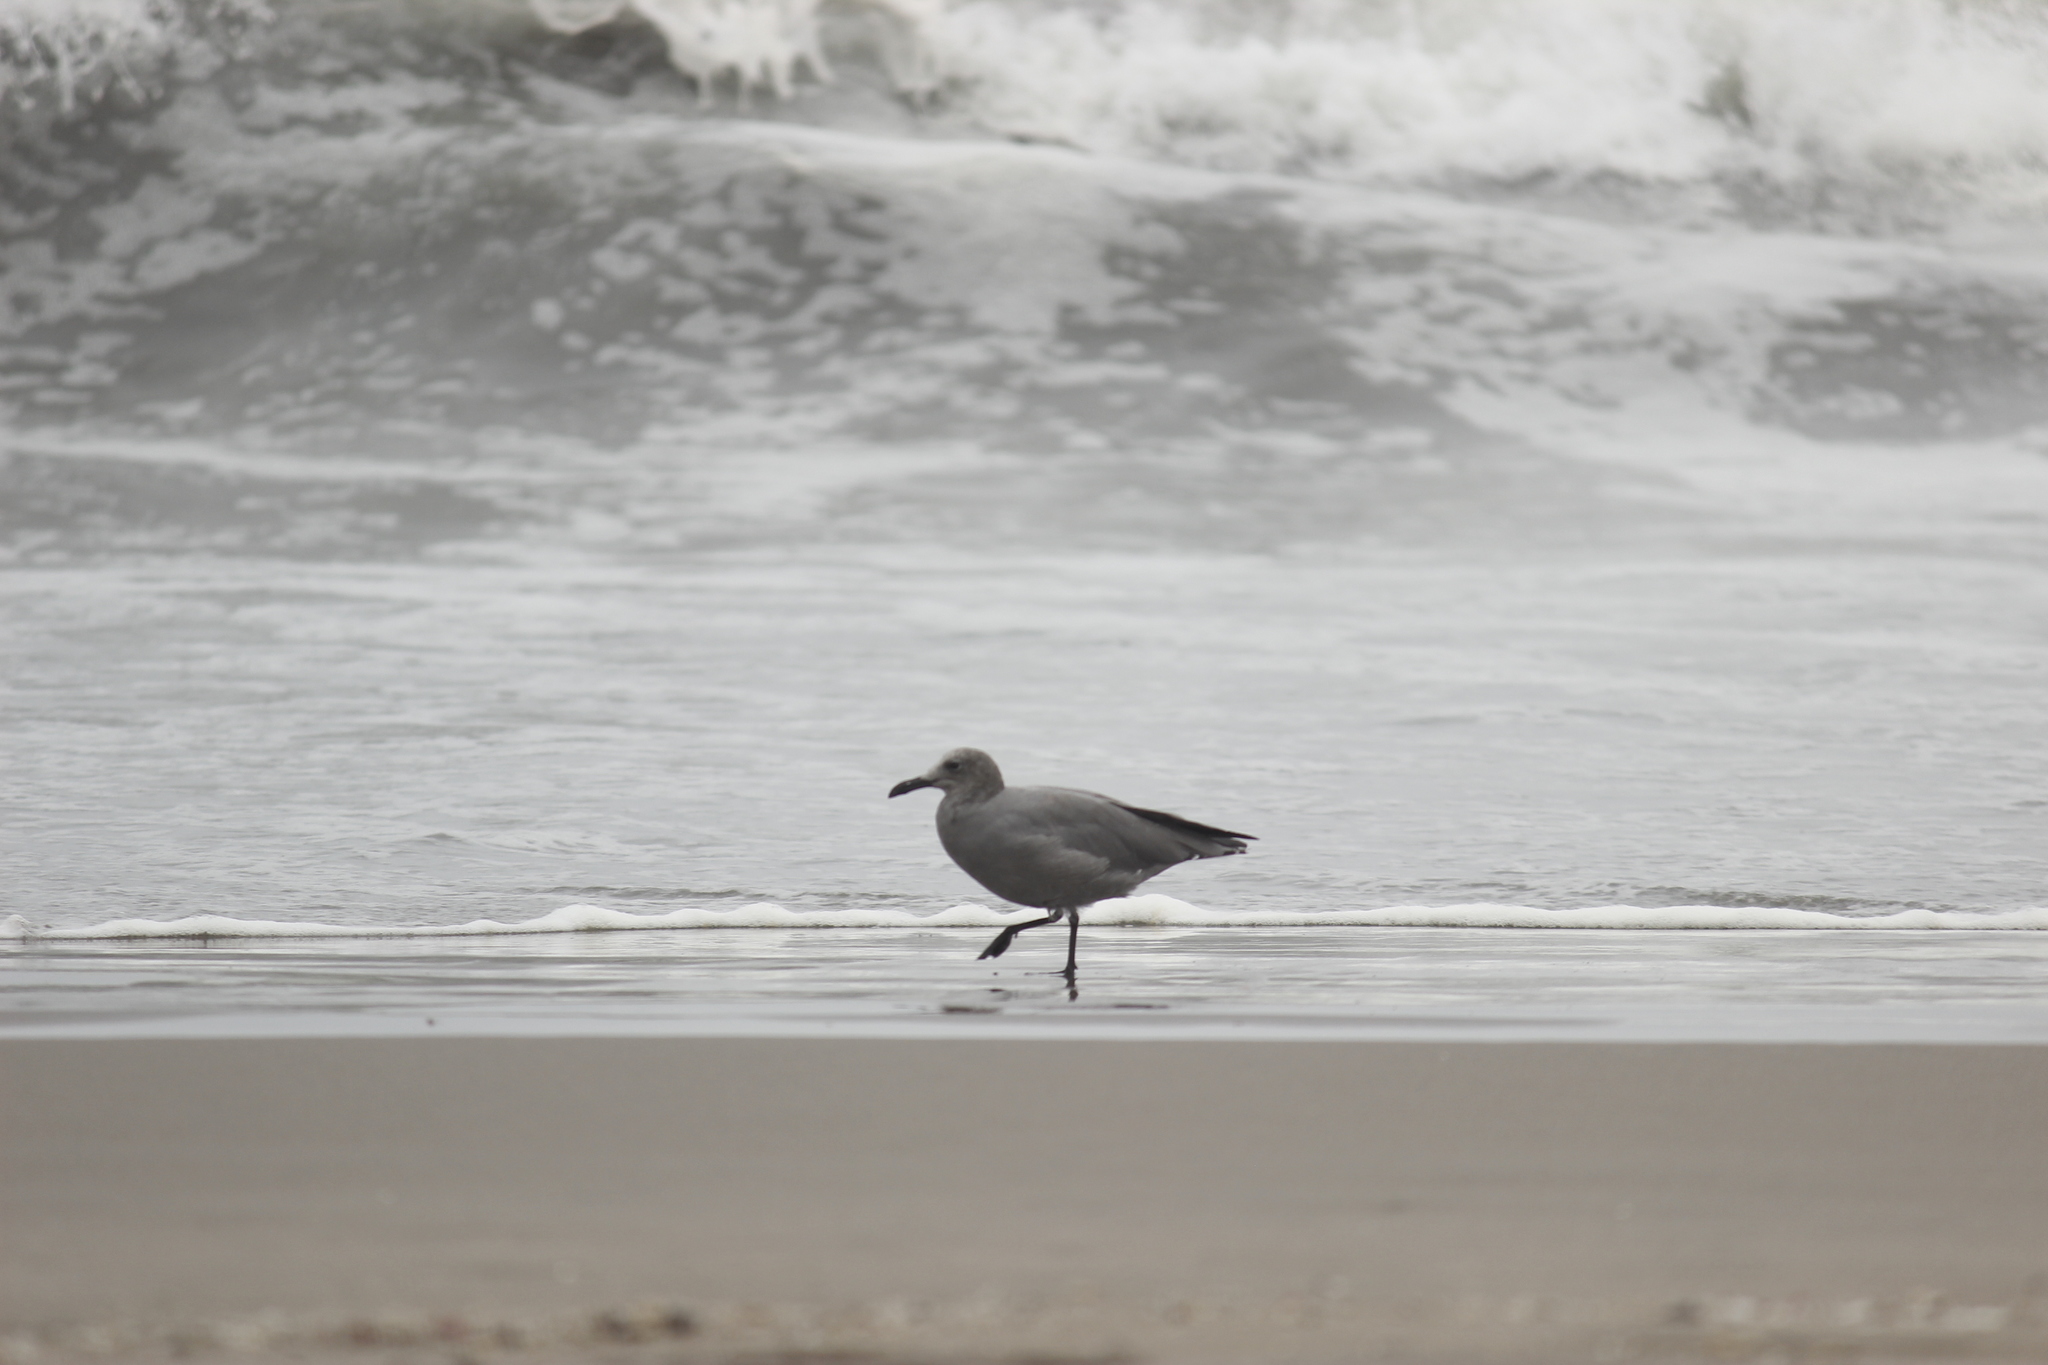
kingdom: Animalia
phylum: Chordata
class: Aves
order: Charadriiformes
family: Laridae
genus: Leucophaeus
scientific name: Leucophaeus modestus
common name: Gray gull
